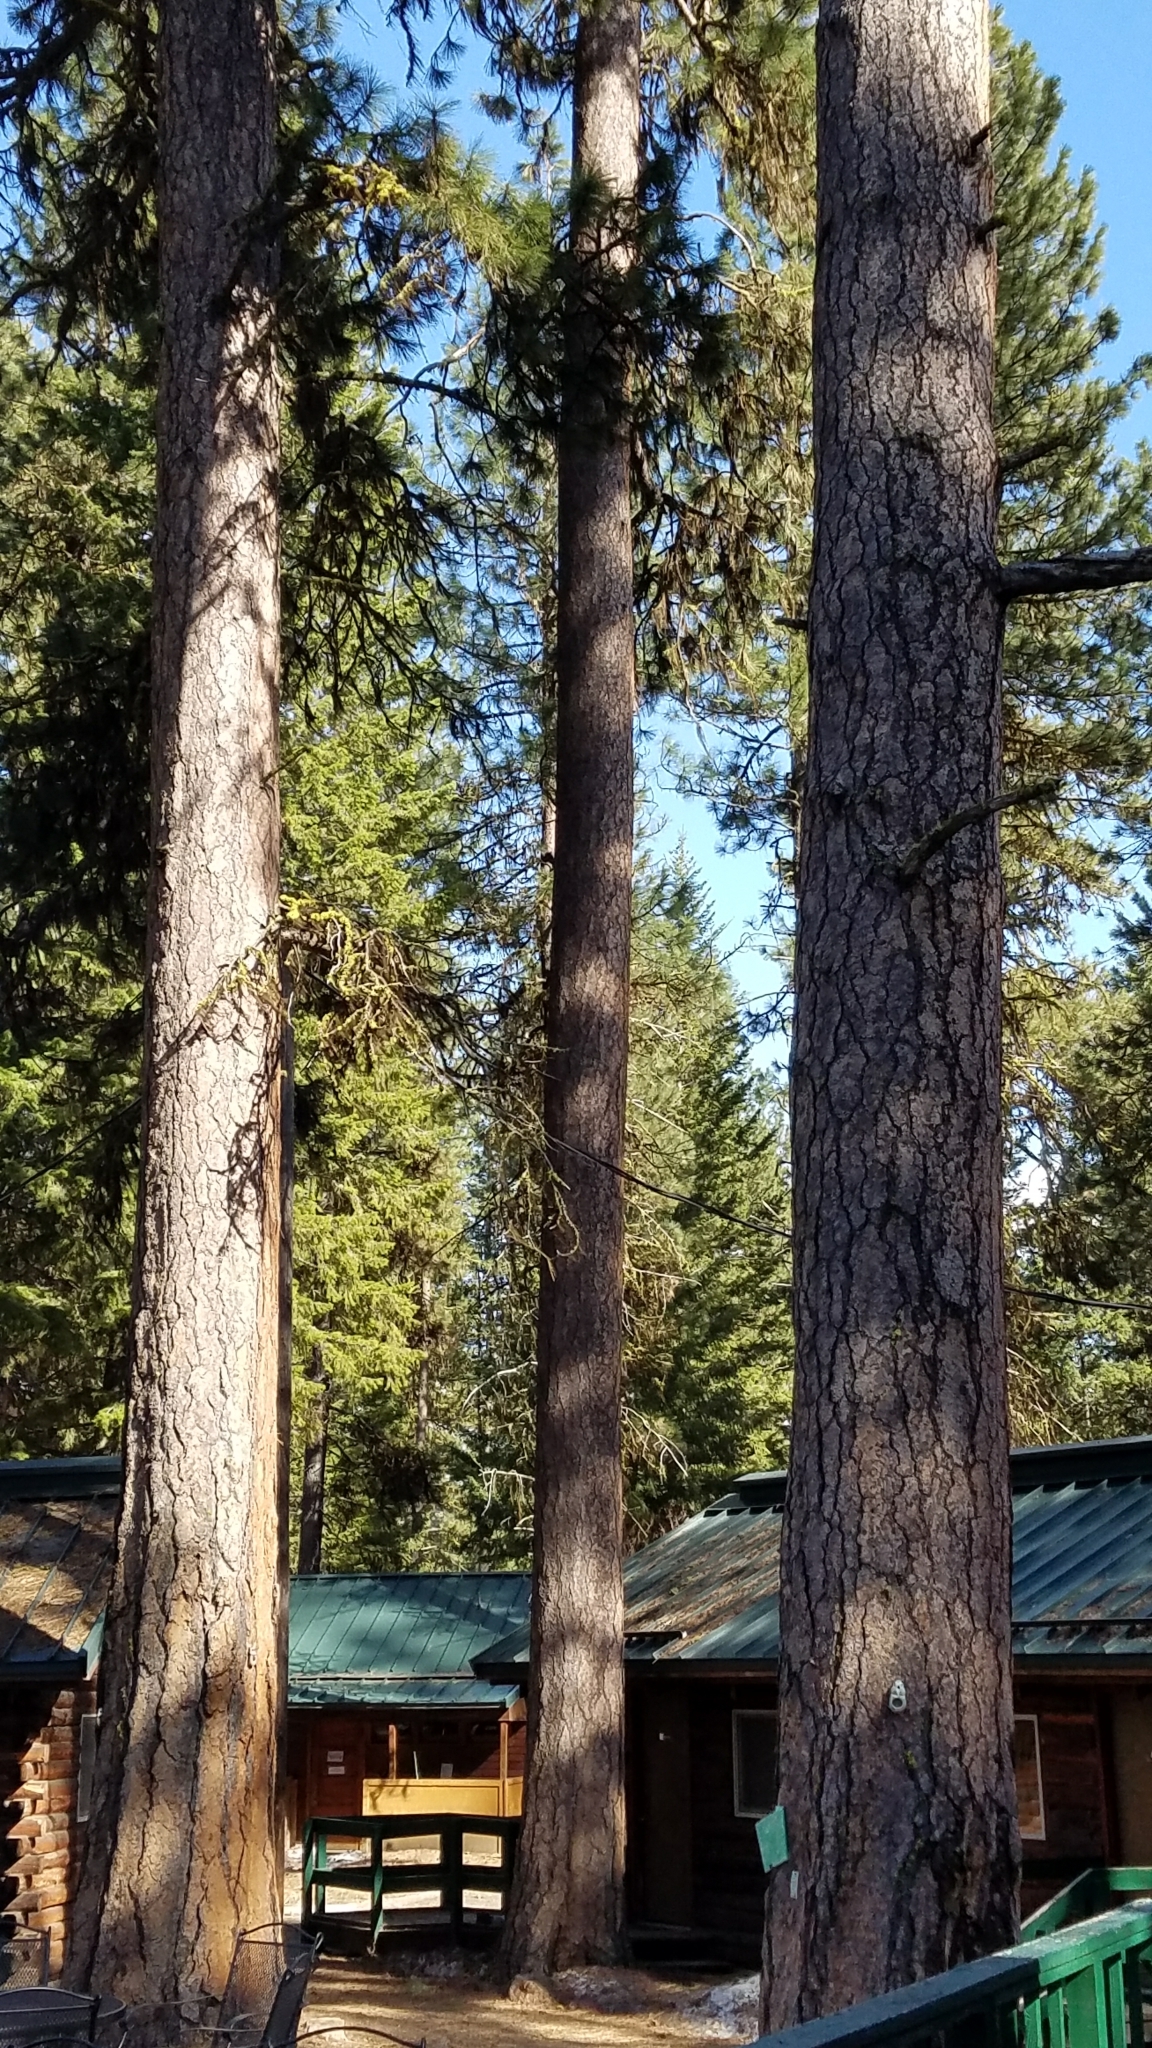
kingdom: Plantae
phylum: Tracheophyta
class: Pinopsida
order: Pinales
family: Pinaceae
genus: Pinus
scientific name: Pinus ponderosa
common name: Western yellow-pine
